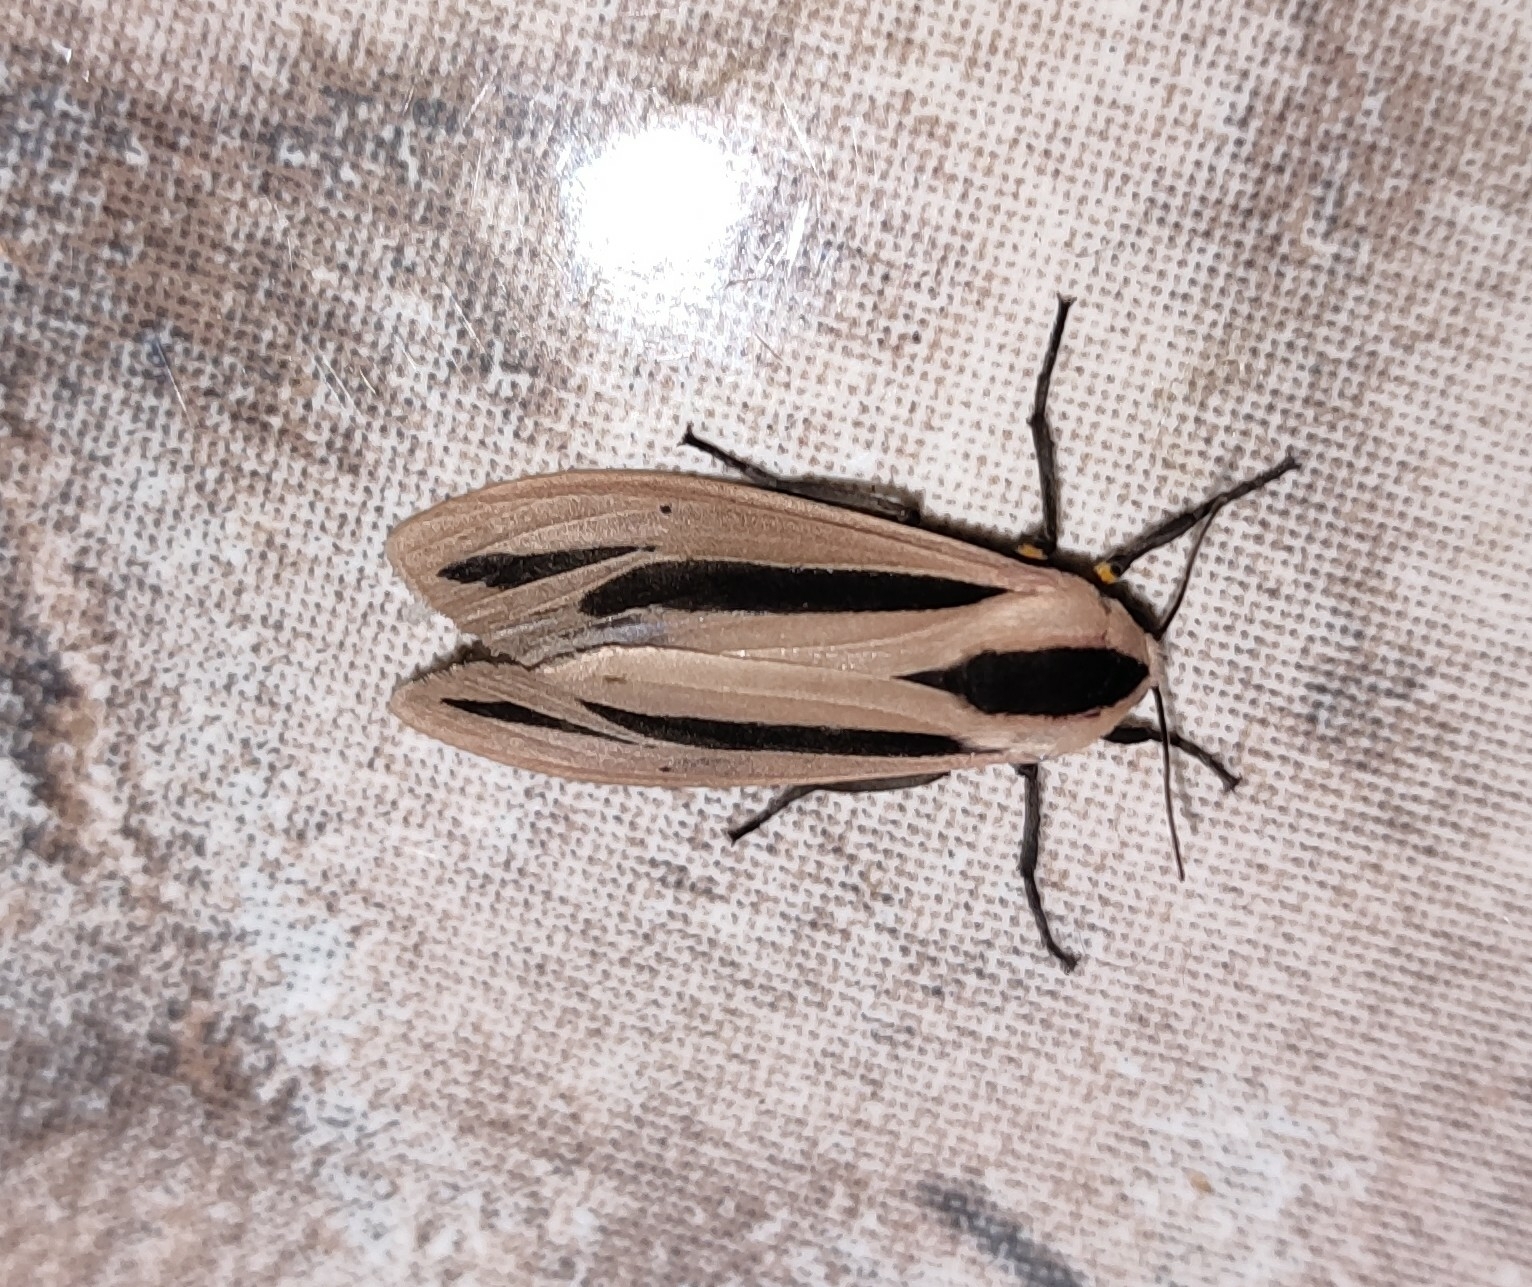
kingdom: Animalia
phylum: Arthropoda
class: Insecta
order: Lepidoptera
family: Erebidae
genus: Creatonotos
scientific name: Creatonotos gangis
